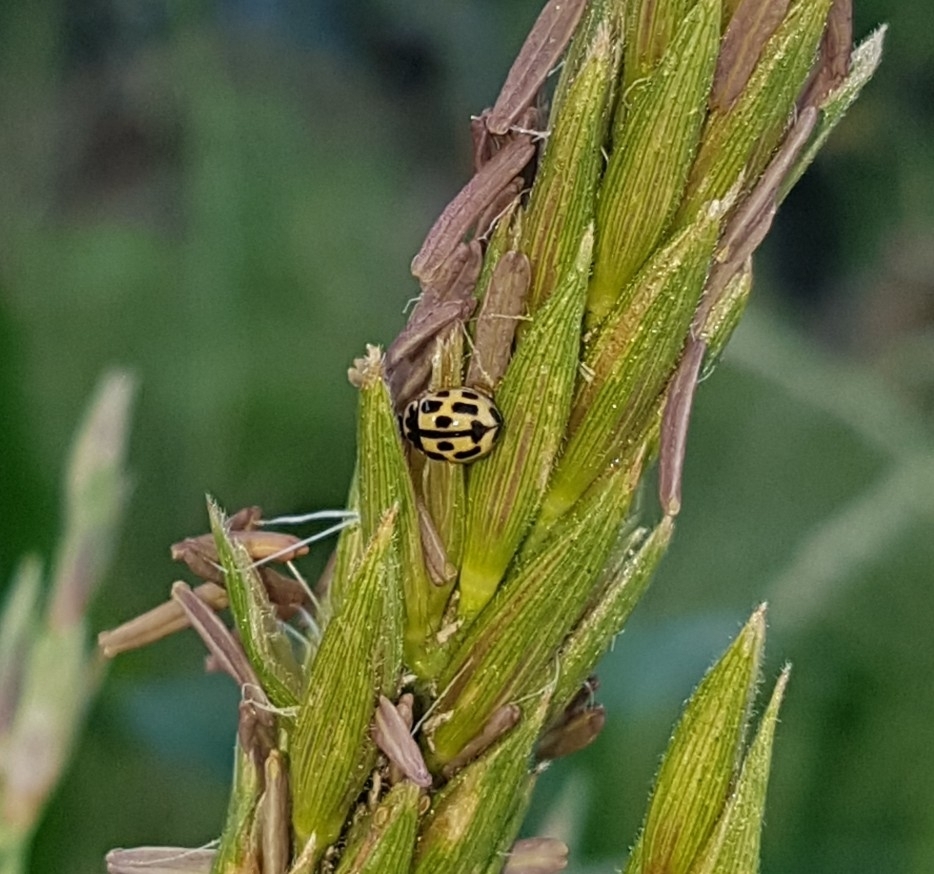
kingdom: Animalia
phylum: Arthropoda
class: Insecta
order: Coleoptera
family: Coccinellidae
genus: Propylaea
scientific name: Propylaea quatuordecimpunctata
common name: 14-spotted ladybird beetle
